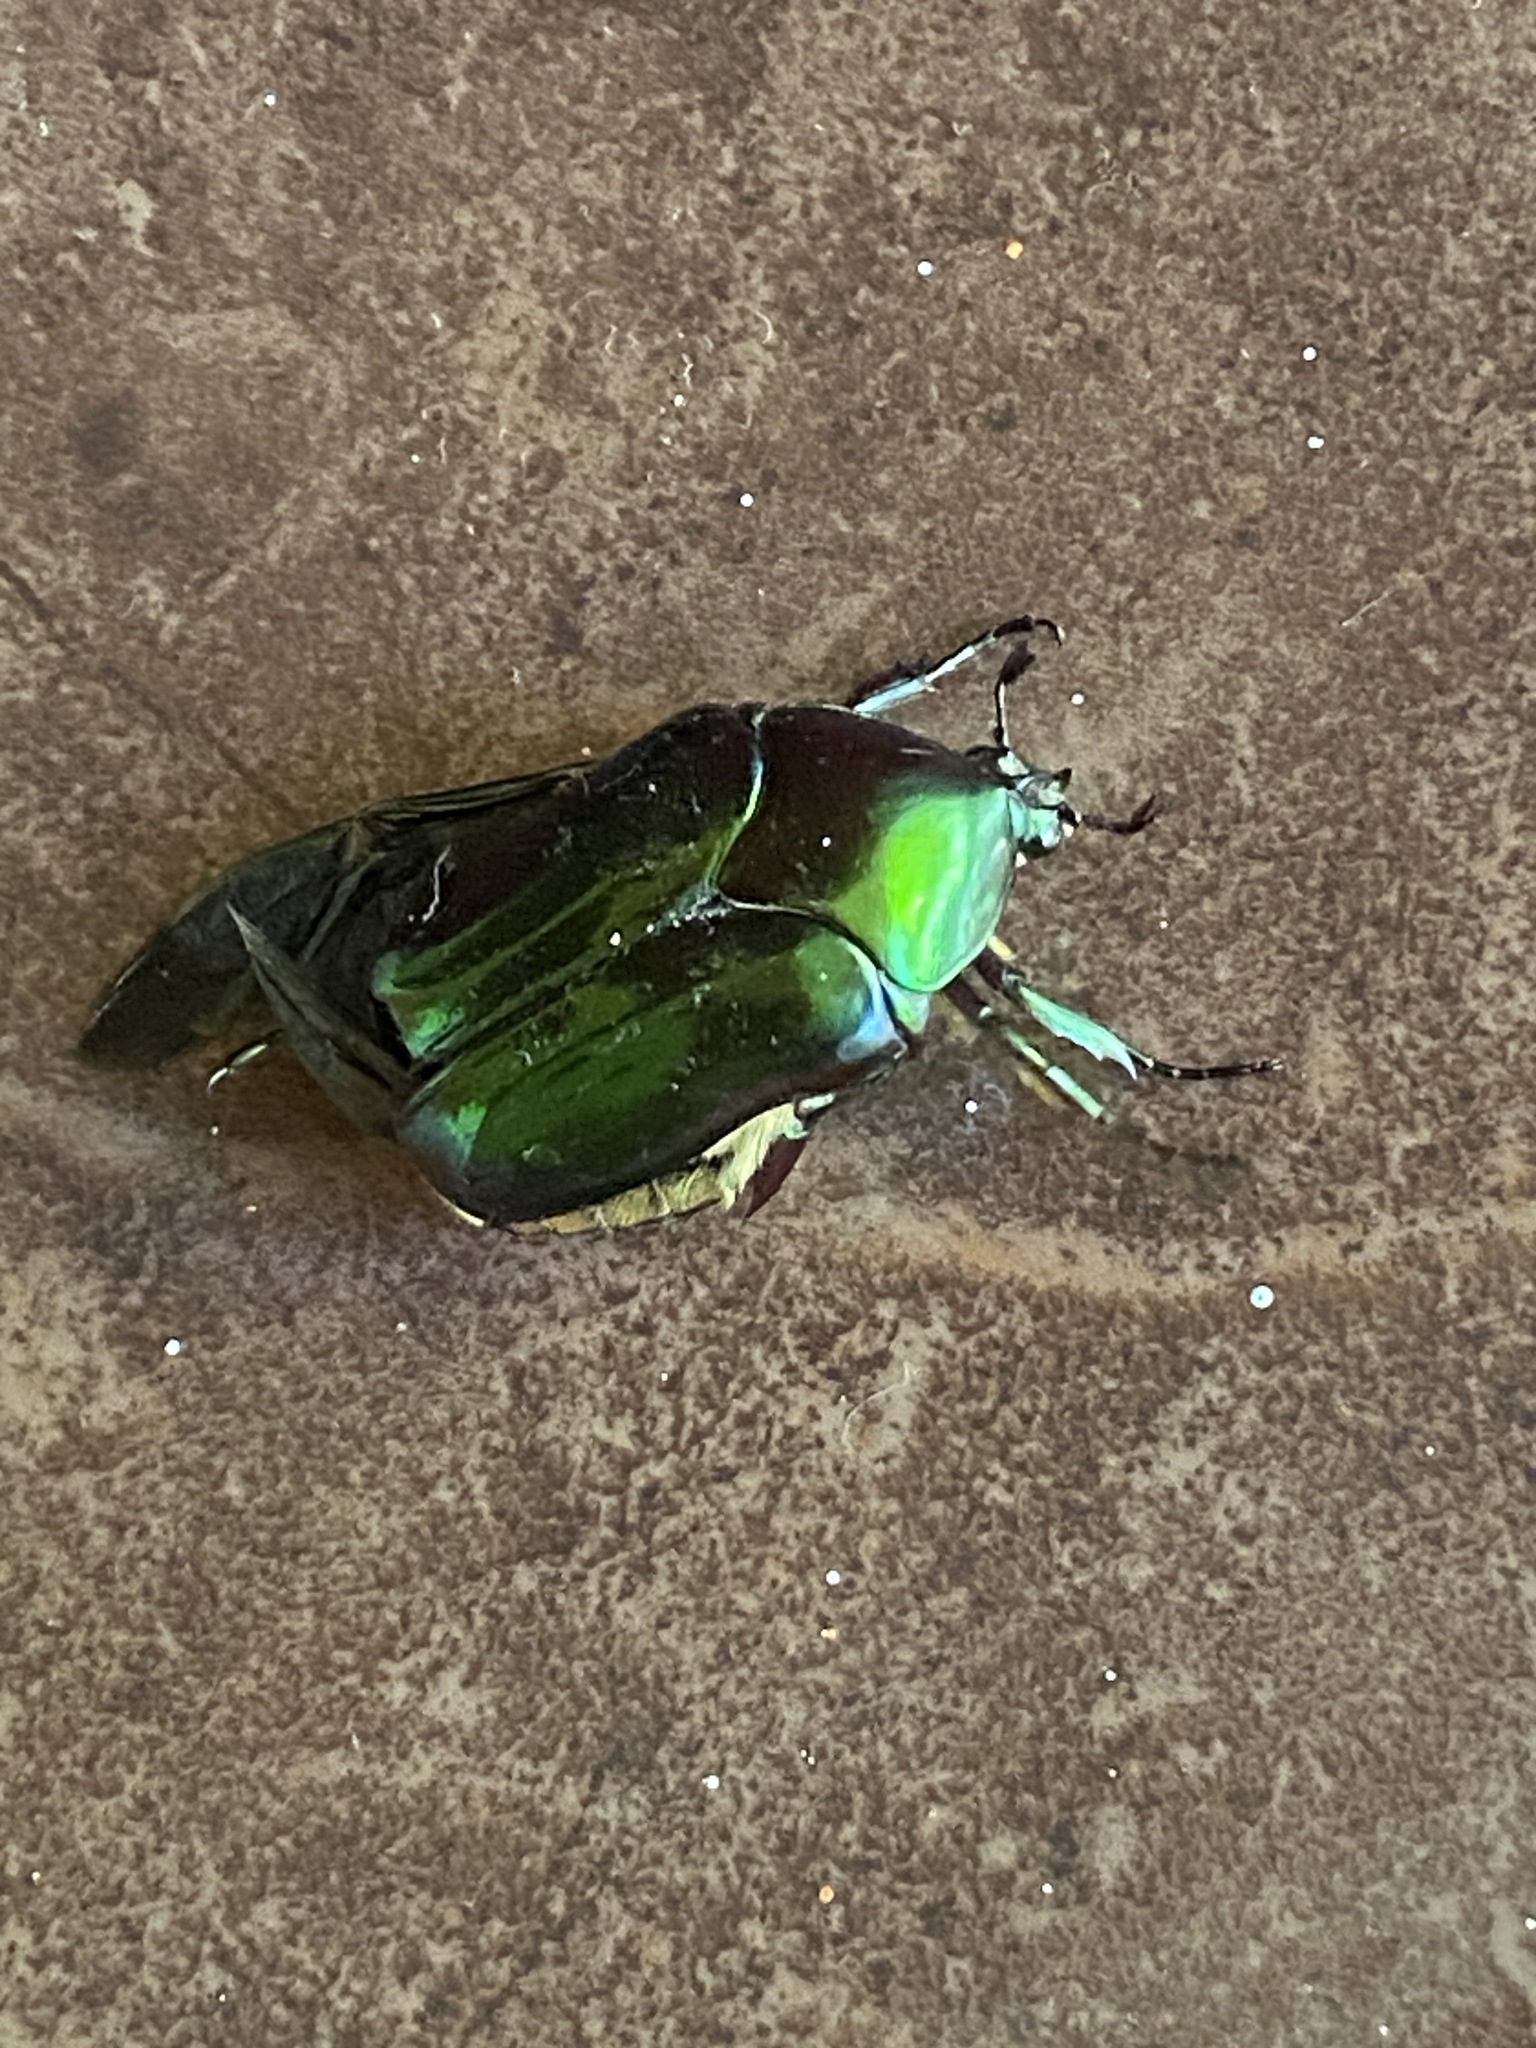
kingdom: Animalia
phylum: Arthropoda
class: Insecta
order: Coleoptera
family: Scarabaeidae
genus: Cotinis
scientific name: Cotinis mutabilis
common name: Figeater beetle
